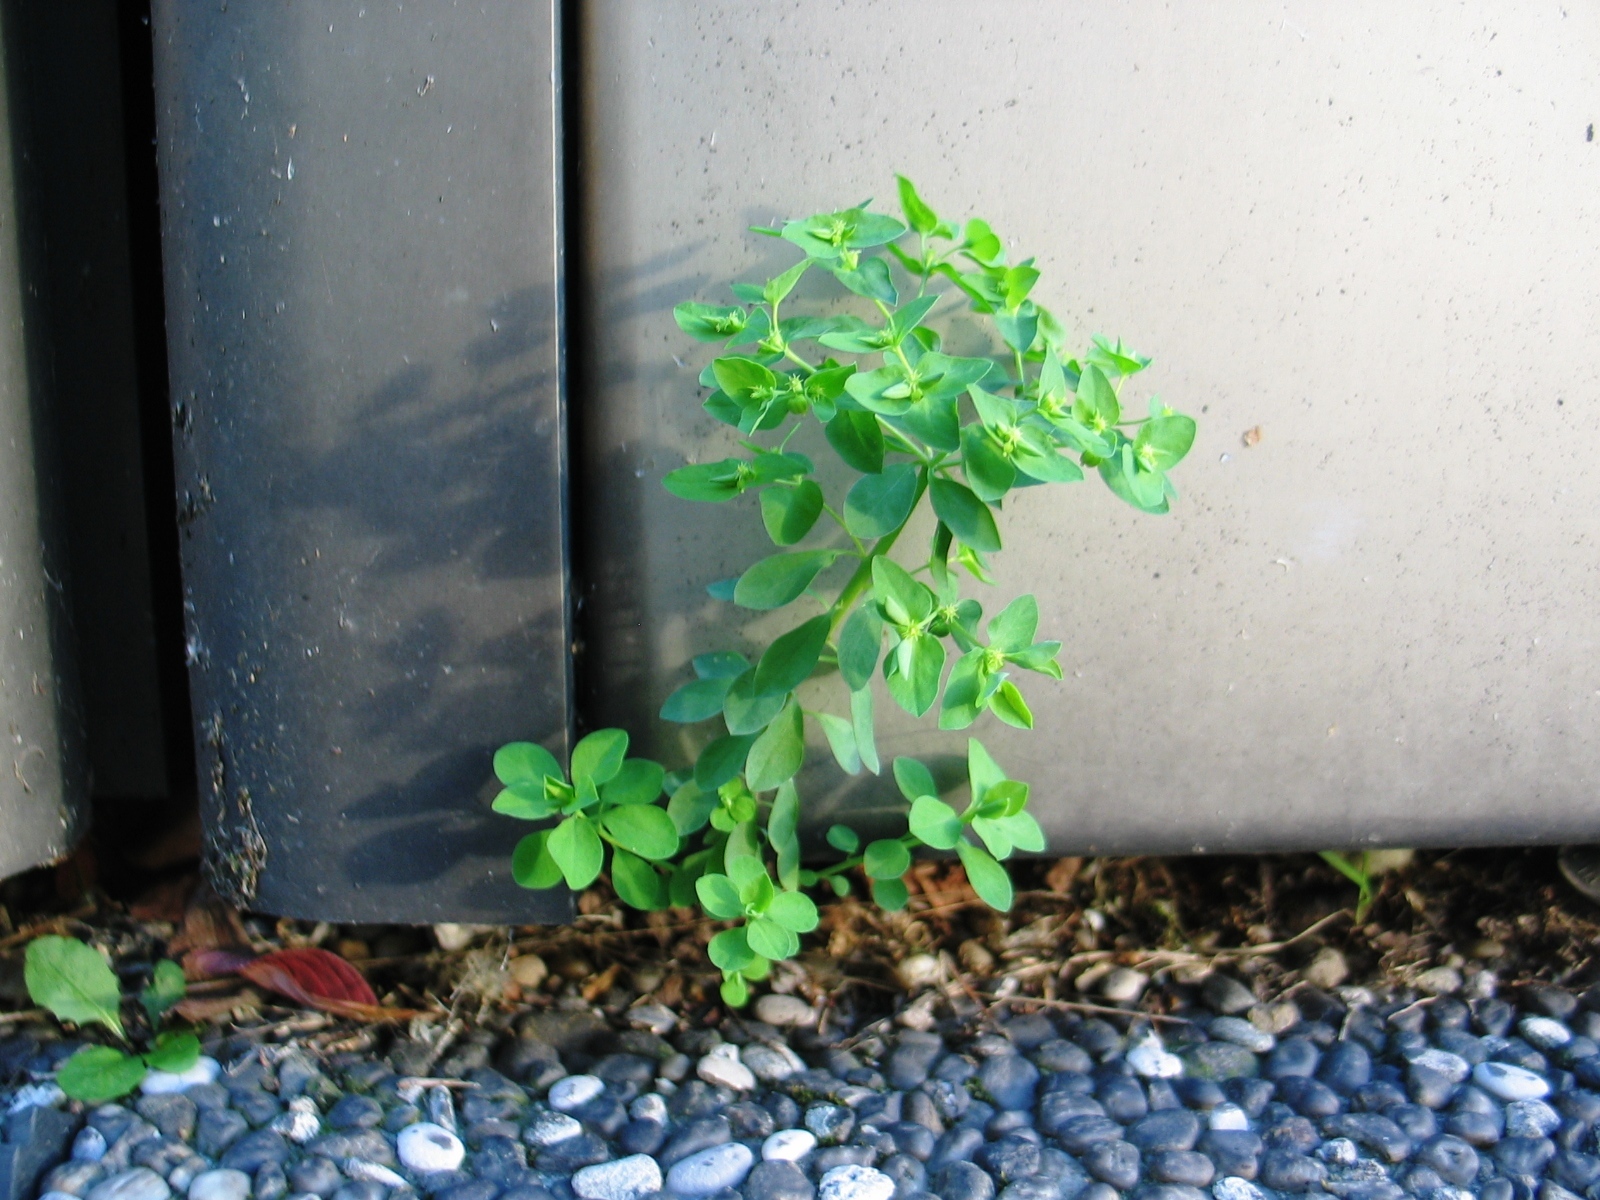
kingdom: Plantae
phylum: Tracheophyta
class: Magnoliopsida
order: Malpighiales
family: Euphorbiaceae
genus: Euphorbia
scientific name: Euphorbia peplus
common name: Petty spurge
